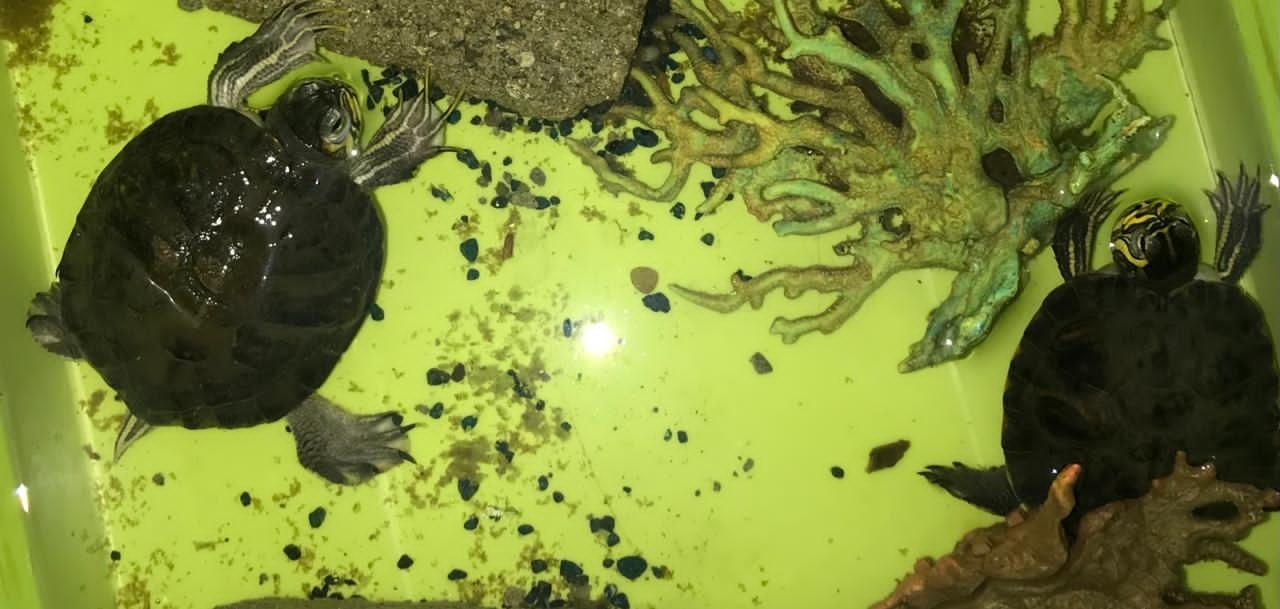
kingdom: Animalia
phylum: Chordata
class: Testudines
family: Emydidae
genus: Trachemys
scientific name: Trachemys scripta
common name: Slider
